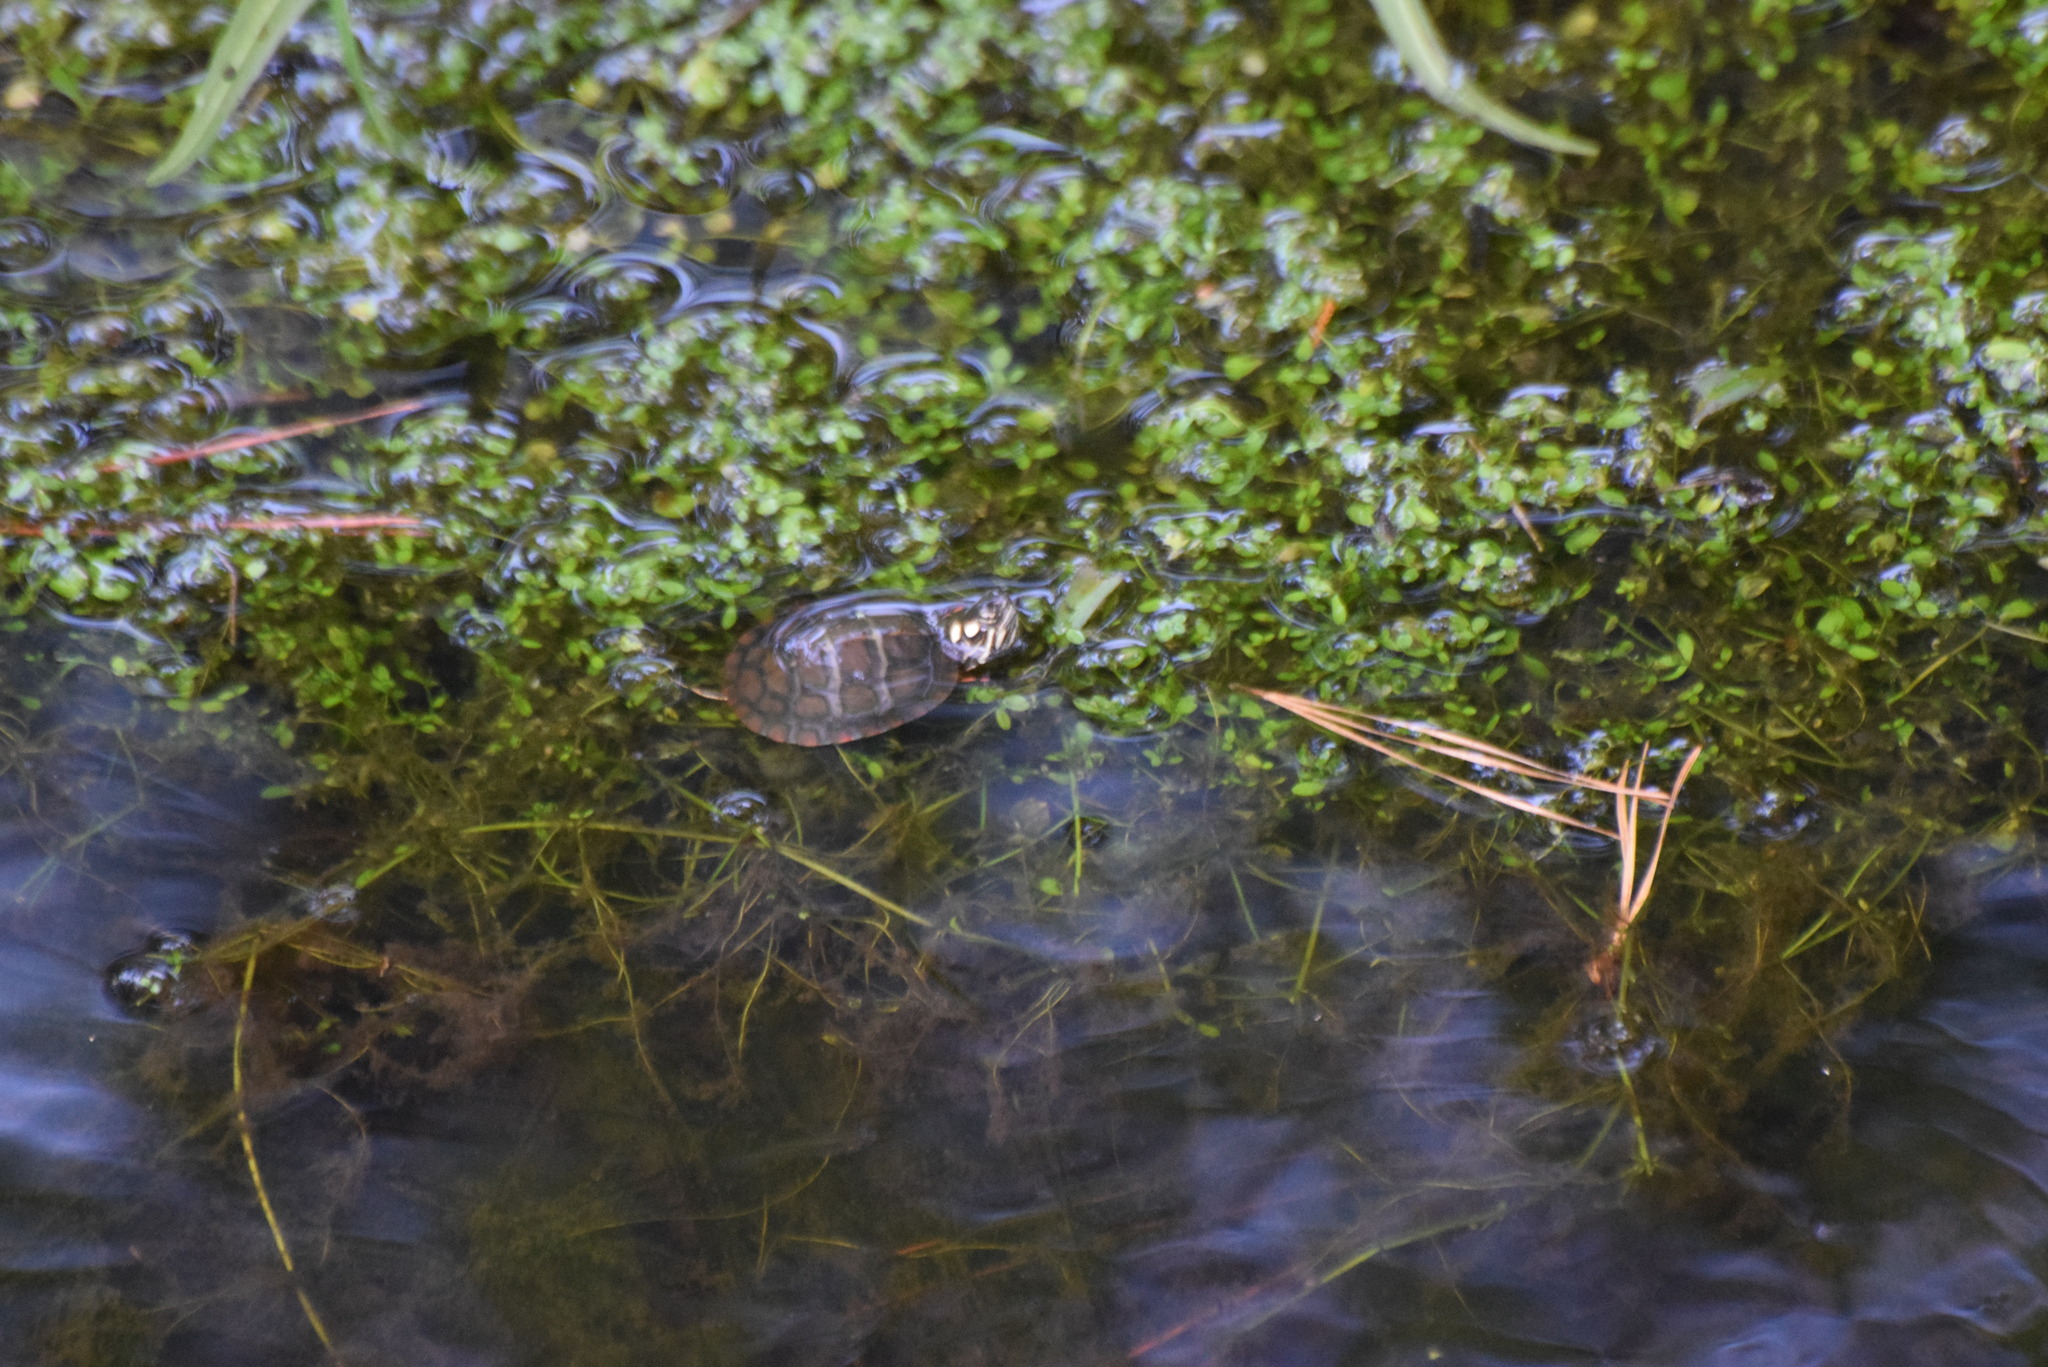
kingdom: Animalia
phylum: Chordata
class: Testudines
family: Emydidae
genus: Chrysemys
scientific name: Chrysemys picta
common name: Painted turtle
